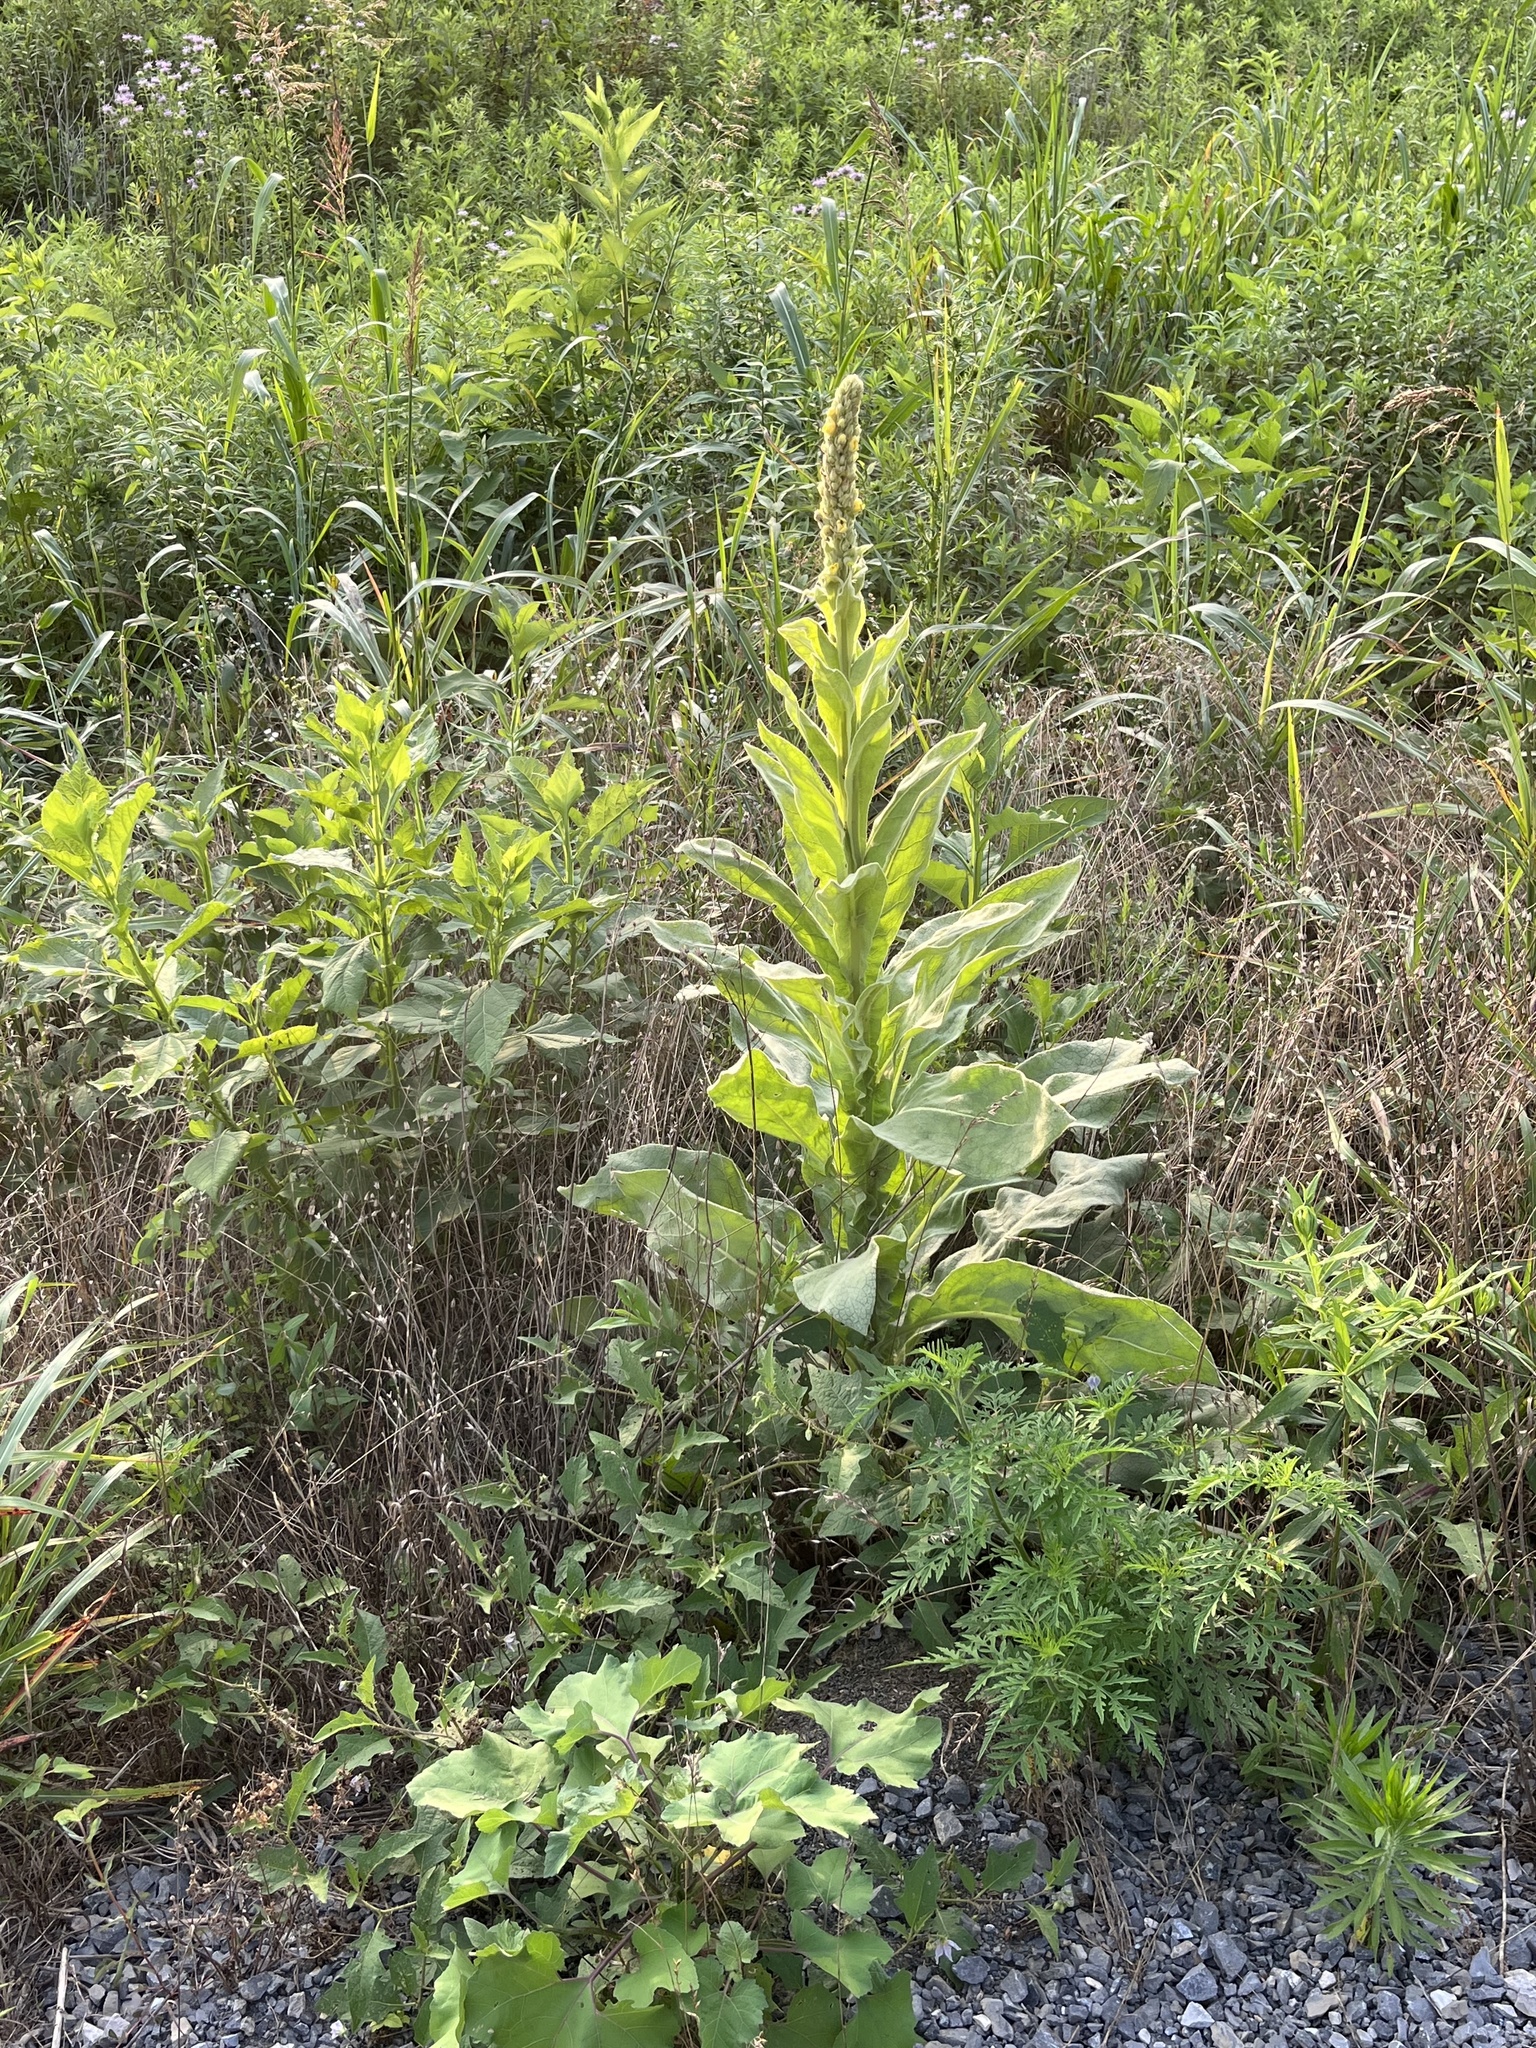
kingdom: Plantae
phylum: Tracheophyta
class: Magnoliopsida
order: Lamiales
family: Scrophulariaceae
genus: Verbascum
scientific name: Verbascum thapsus
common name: Common mullein
